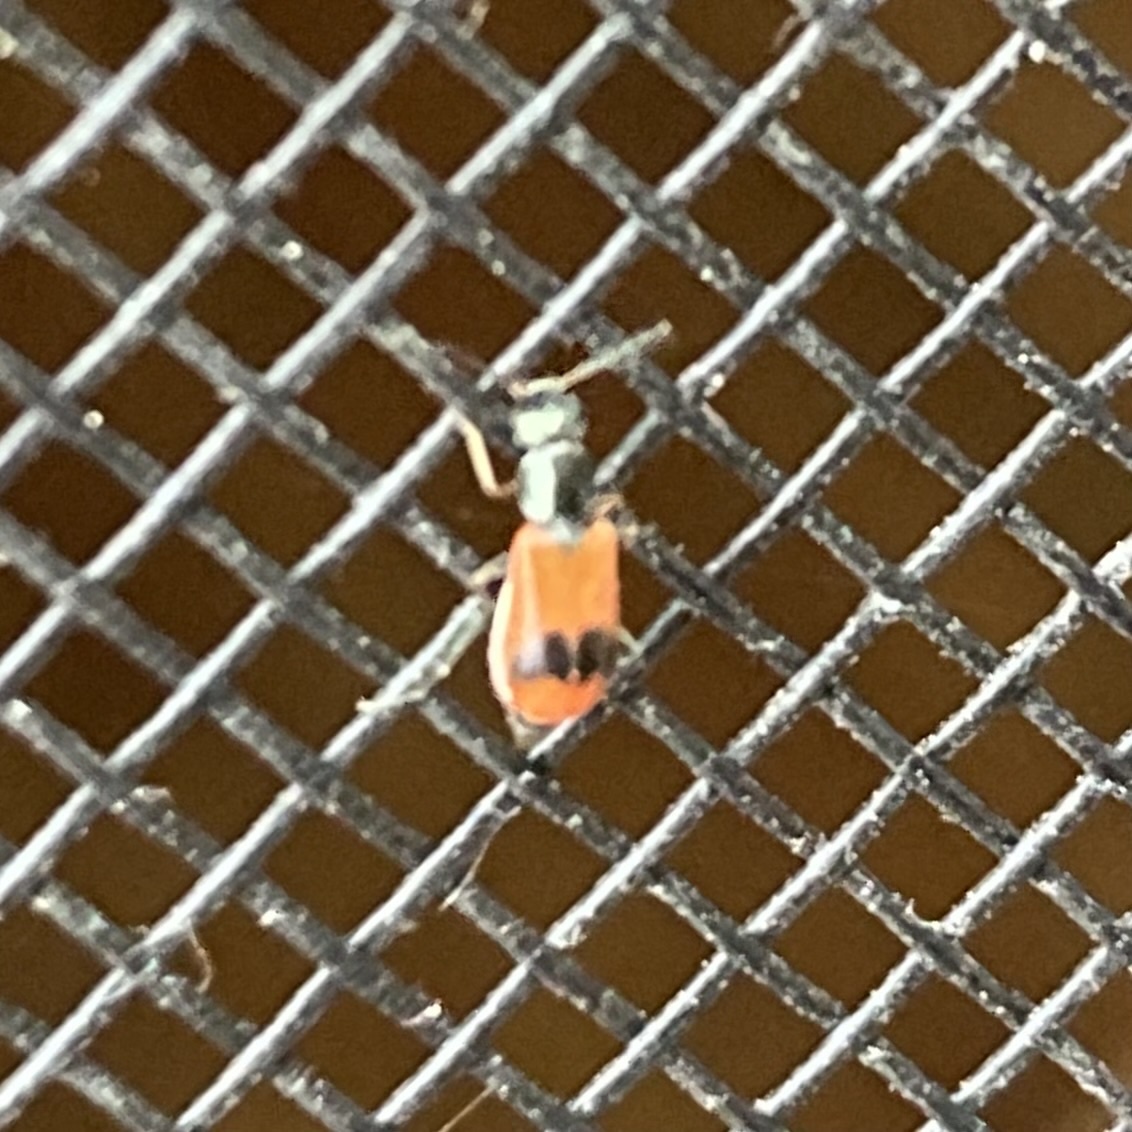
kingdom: Animalia
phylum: Arthropoda
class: Insecta
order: Coleoptera
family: Melyridae
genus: Anthocomus
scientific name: Anthocomus equestris
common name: Black-banded soft-winged flower beetle
